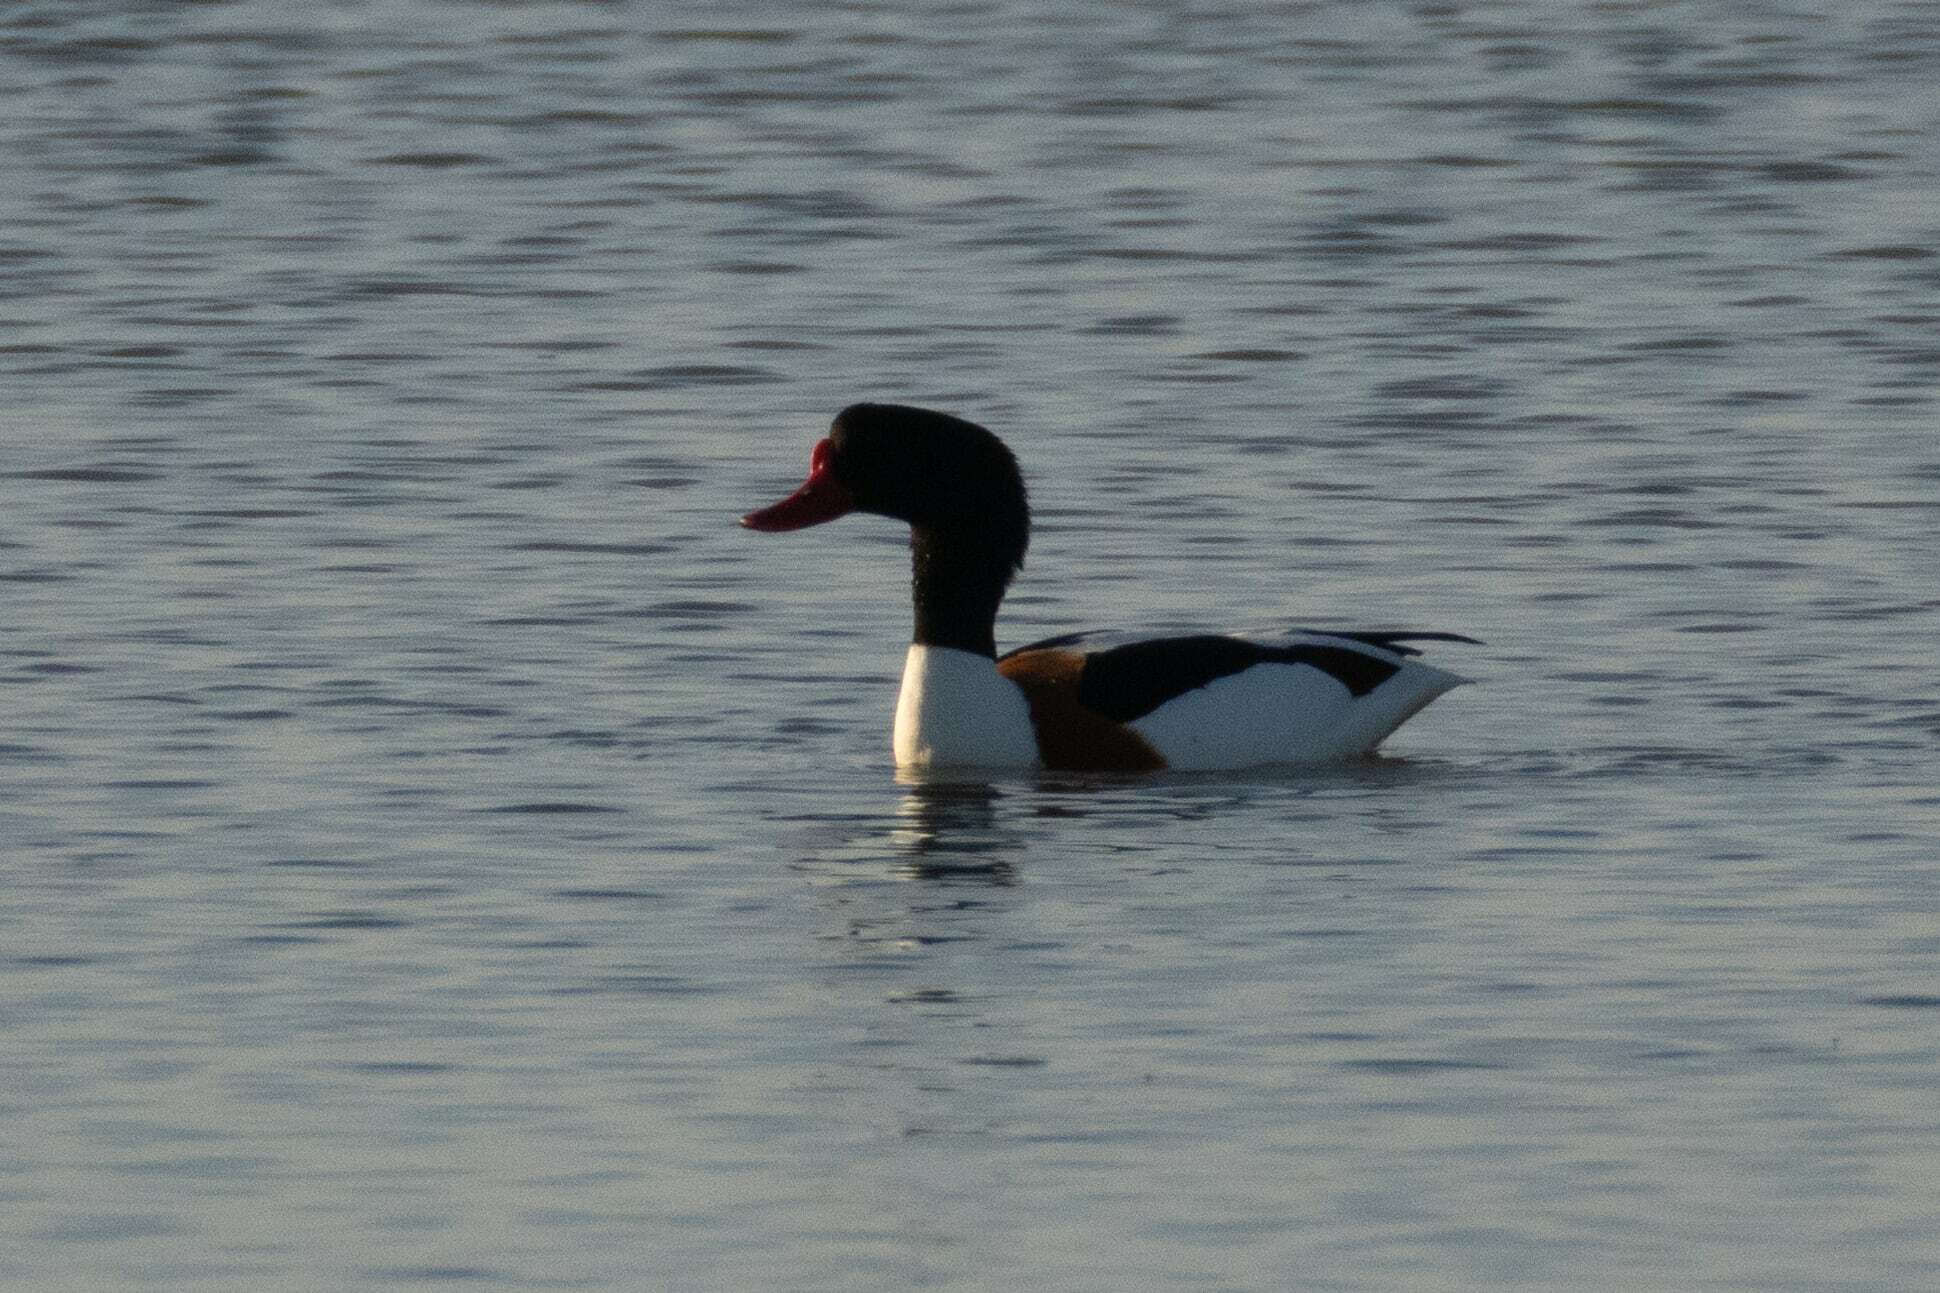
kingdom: Animalia
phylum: Chordata
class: Aves
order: Anseriformes
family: Anatidae
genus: Tadorna
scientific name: Tadorna tadorna
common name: Common shelduck
